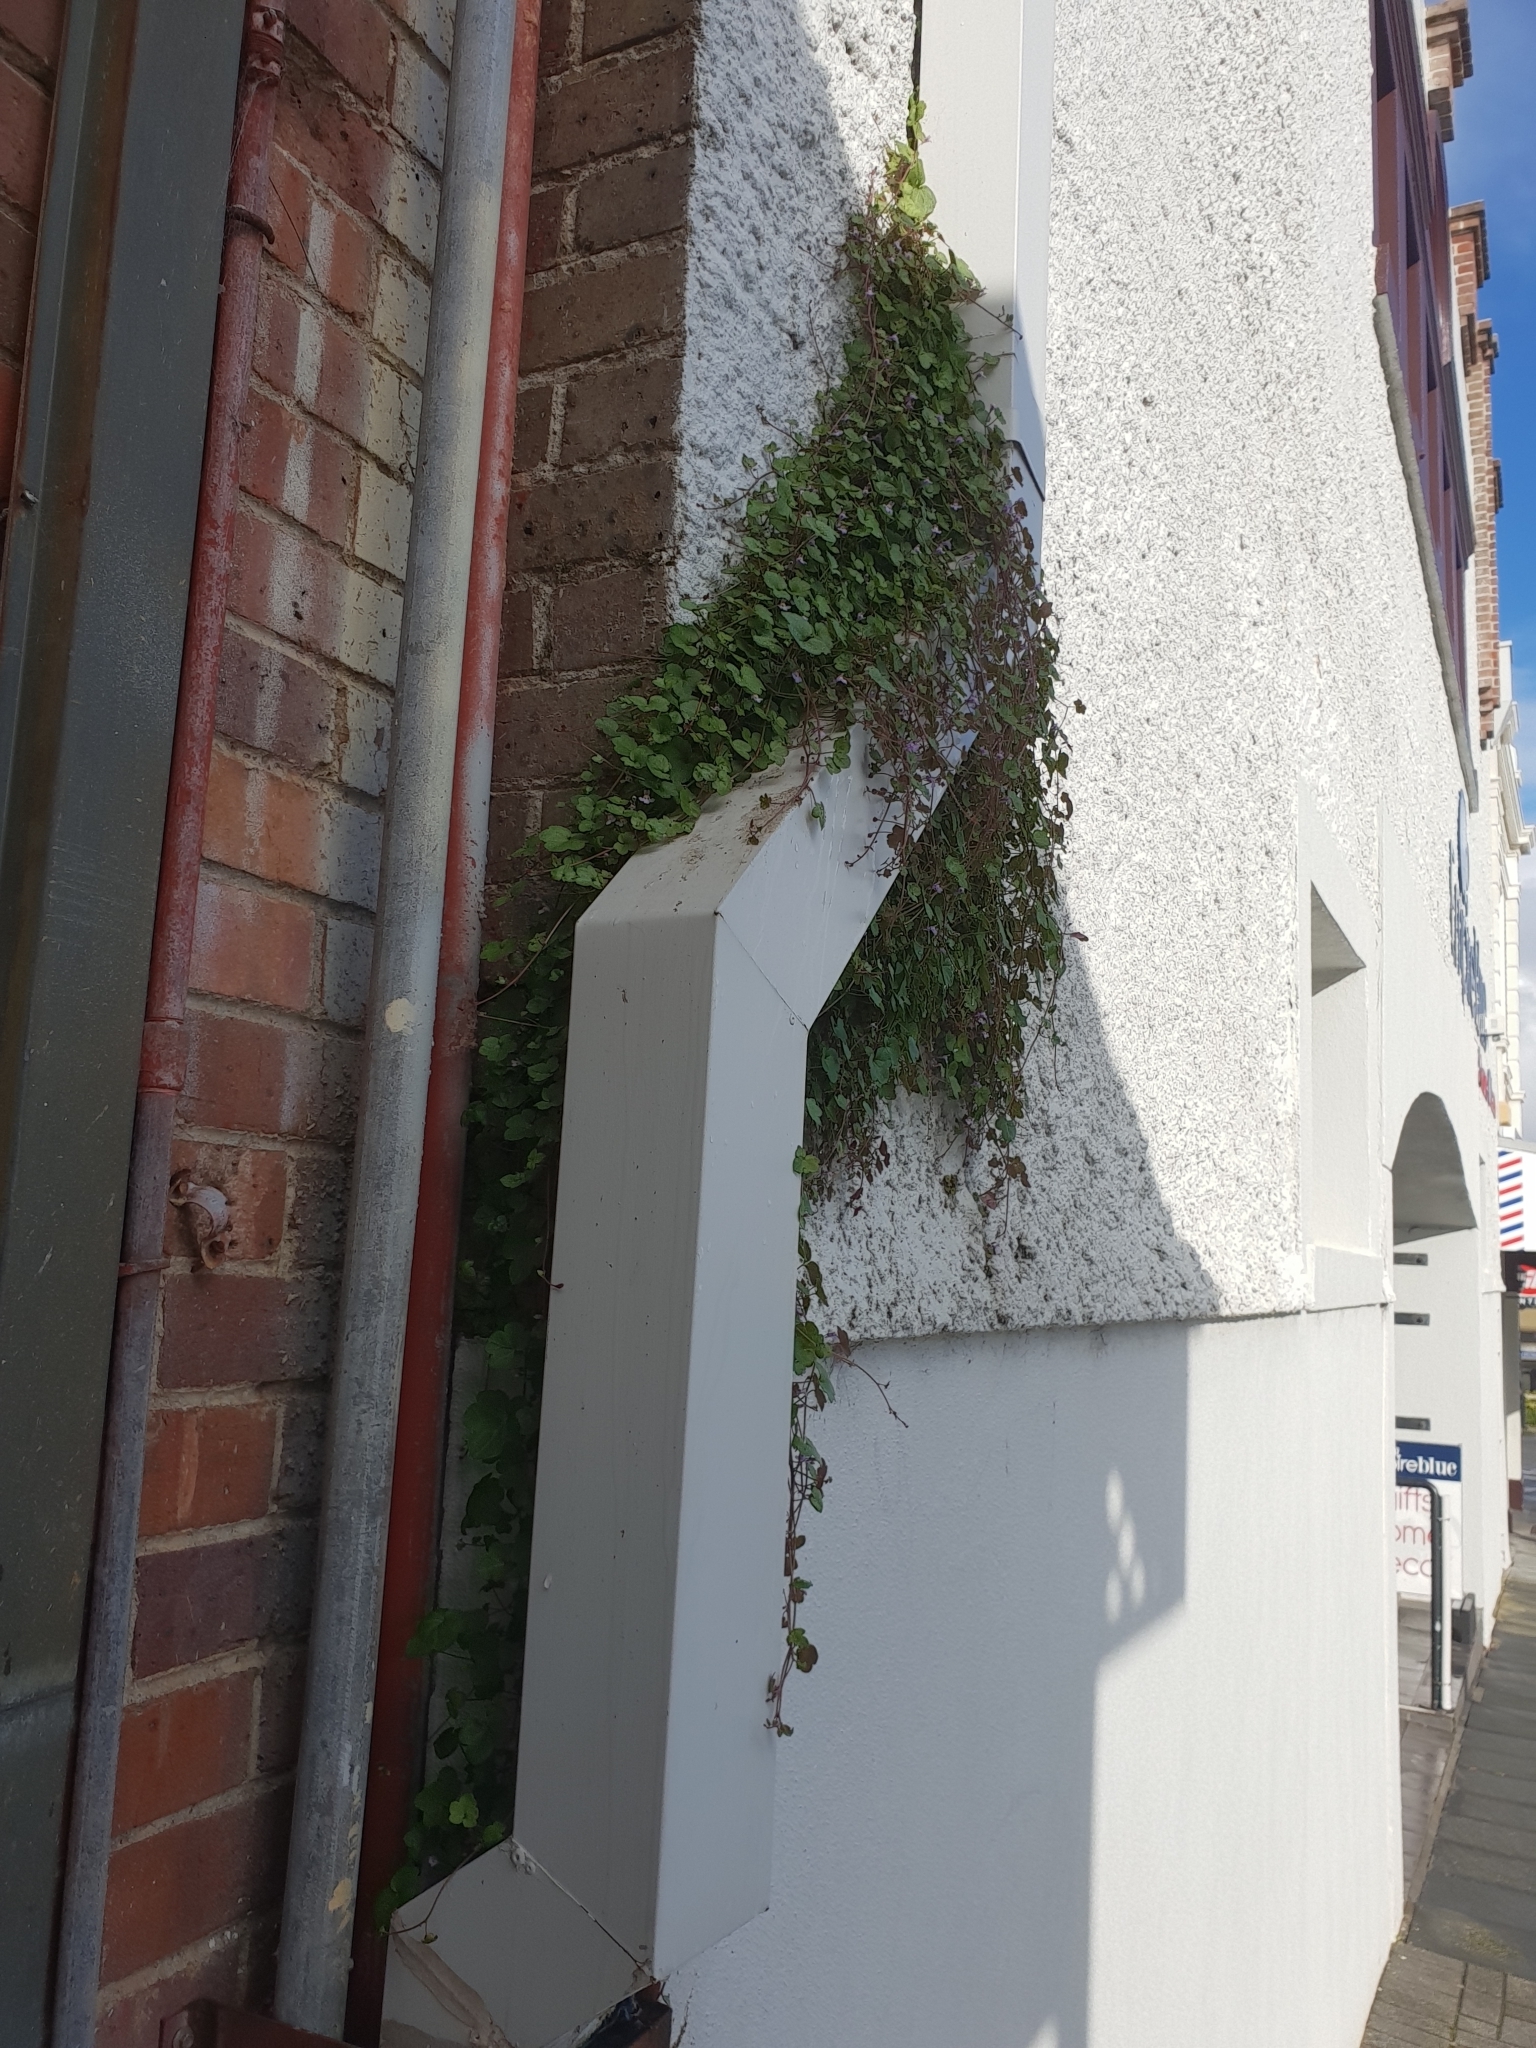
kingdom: Plantae
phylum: Tracheophyta
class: Magnoliopsida
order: Lamiales
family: Plantaginaceae
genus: Cymbalaria
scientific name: Cymbalaria muralis
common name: Ivy-leaved toadflax
